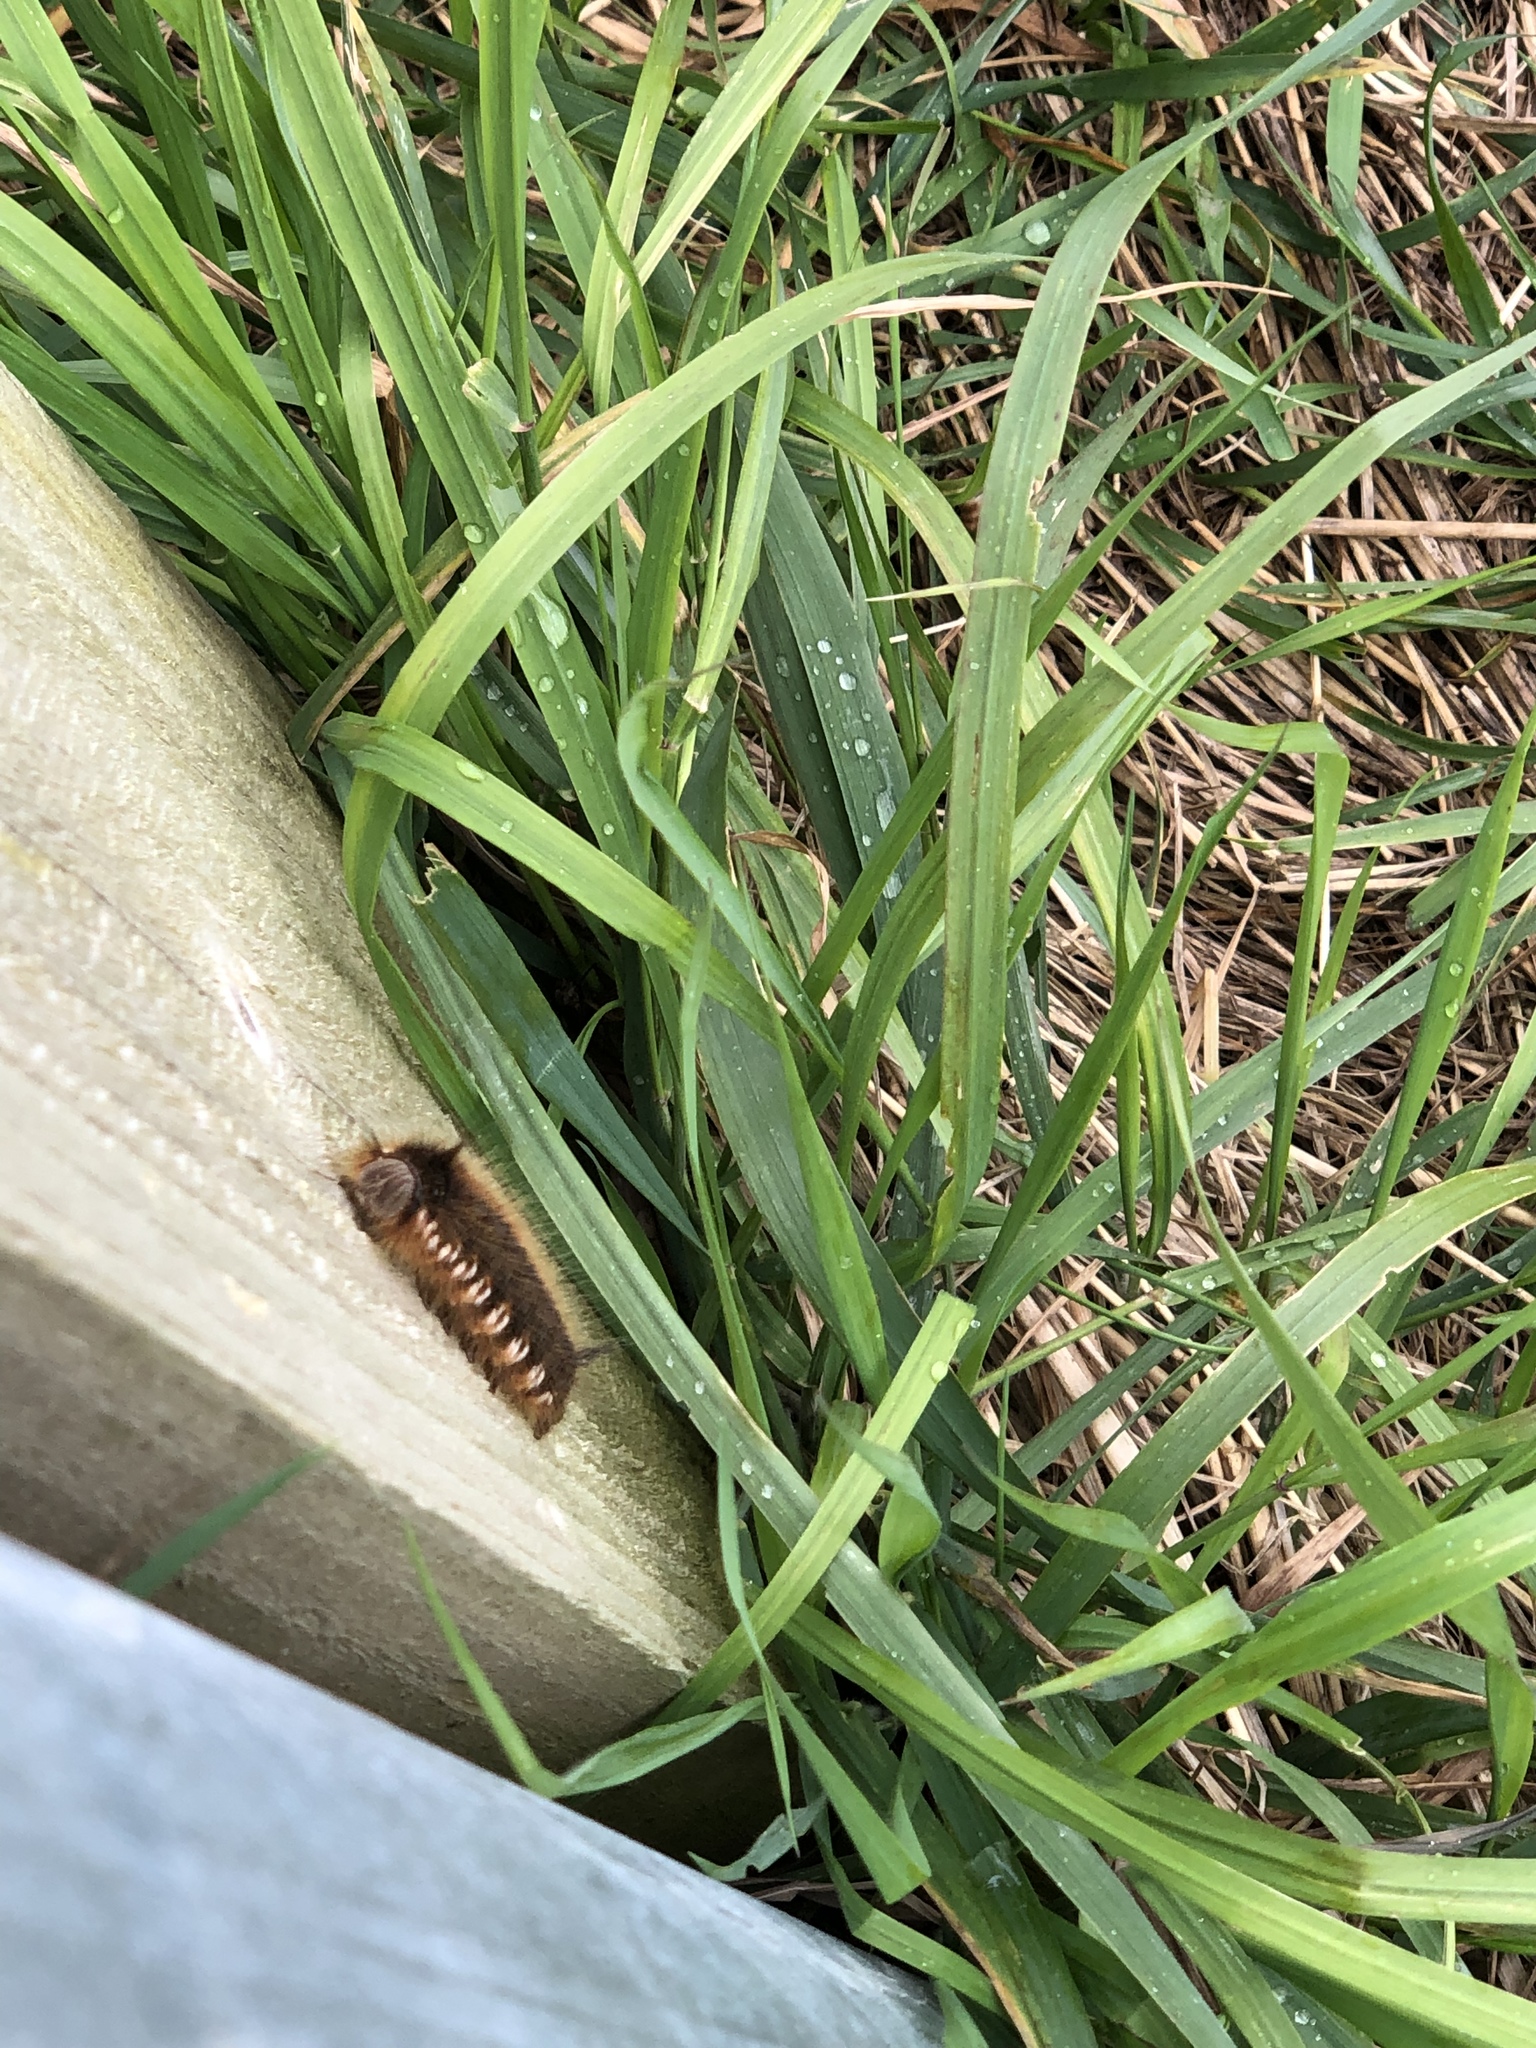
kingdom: Animalia
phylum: Arthropoda
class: Insecta
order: Lepidoptera
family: Lasiocampidae
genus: Euthrix
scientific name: Euthrix potatoria
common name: Drinker
